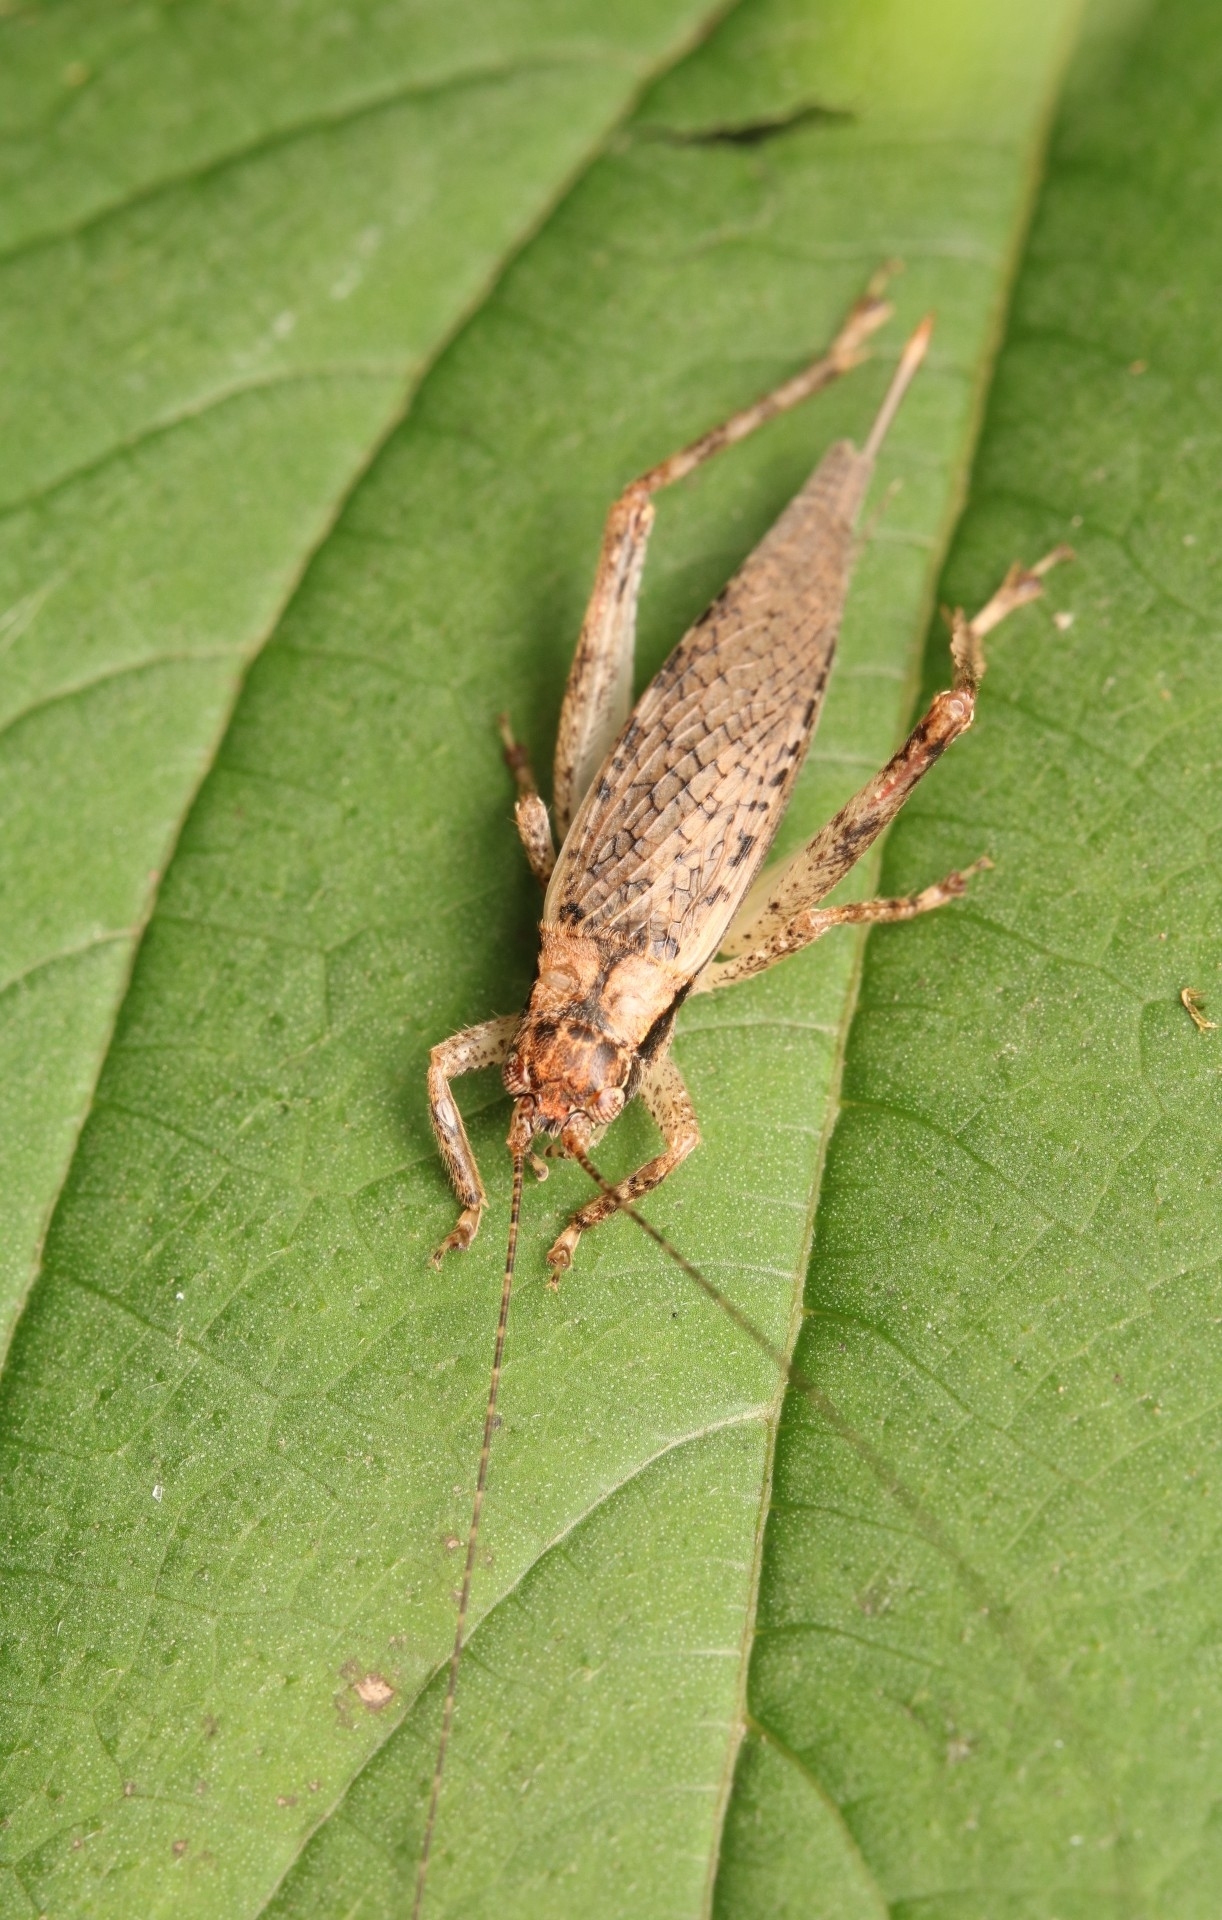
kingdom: Animalia
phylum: Arthropoda
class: Insecta
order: Orthoptera
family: Gryllidae
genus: Hapithus
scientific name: Hapithus saltator
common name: Jumping bush cricket
